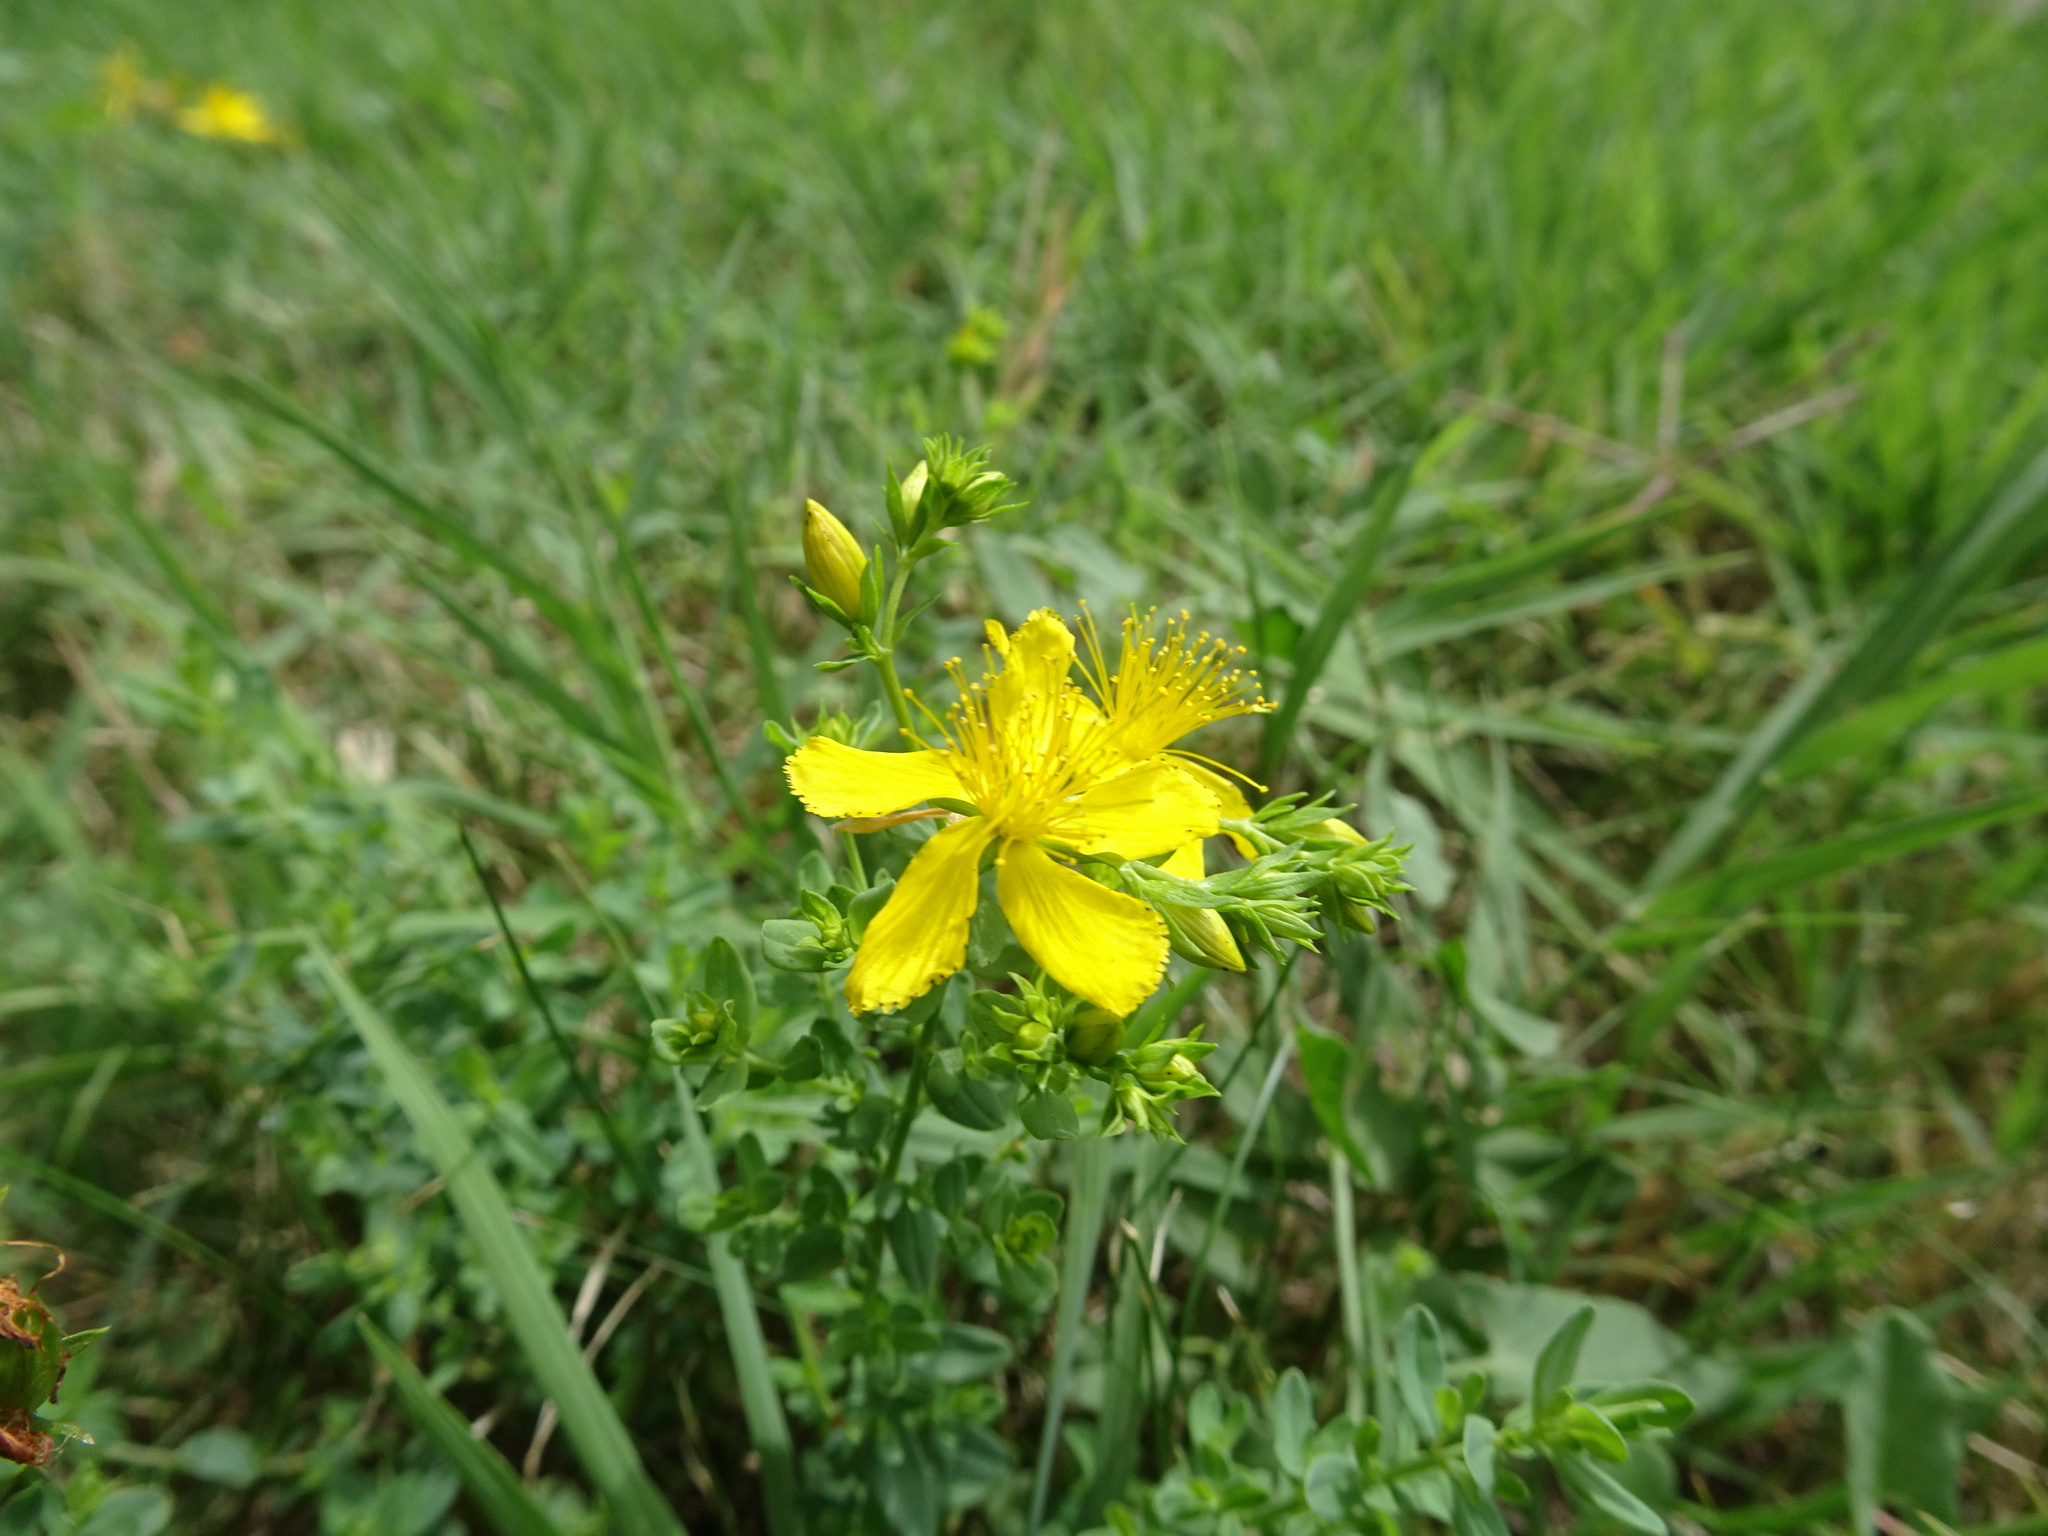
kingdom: Plantae
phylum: Tracheophyta
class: Magnoliopsida
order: Malpighiales
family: Hypericaceae
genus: Hypericum
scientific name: Hypericum perforatum
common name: Common st. johnswort
